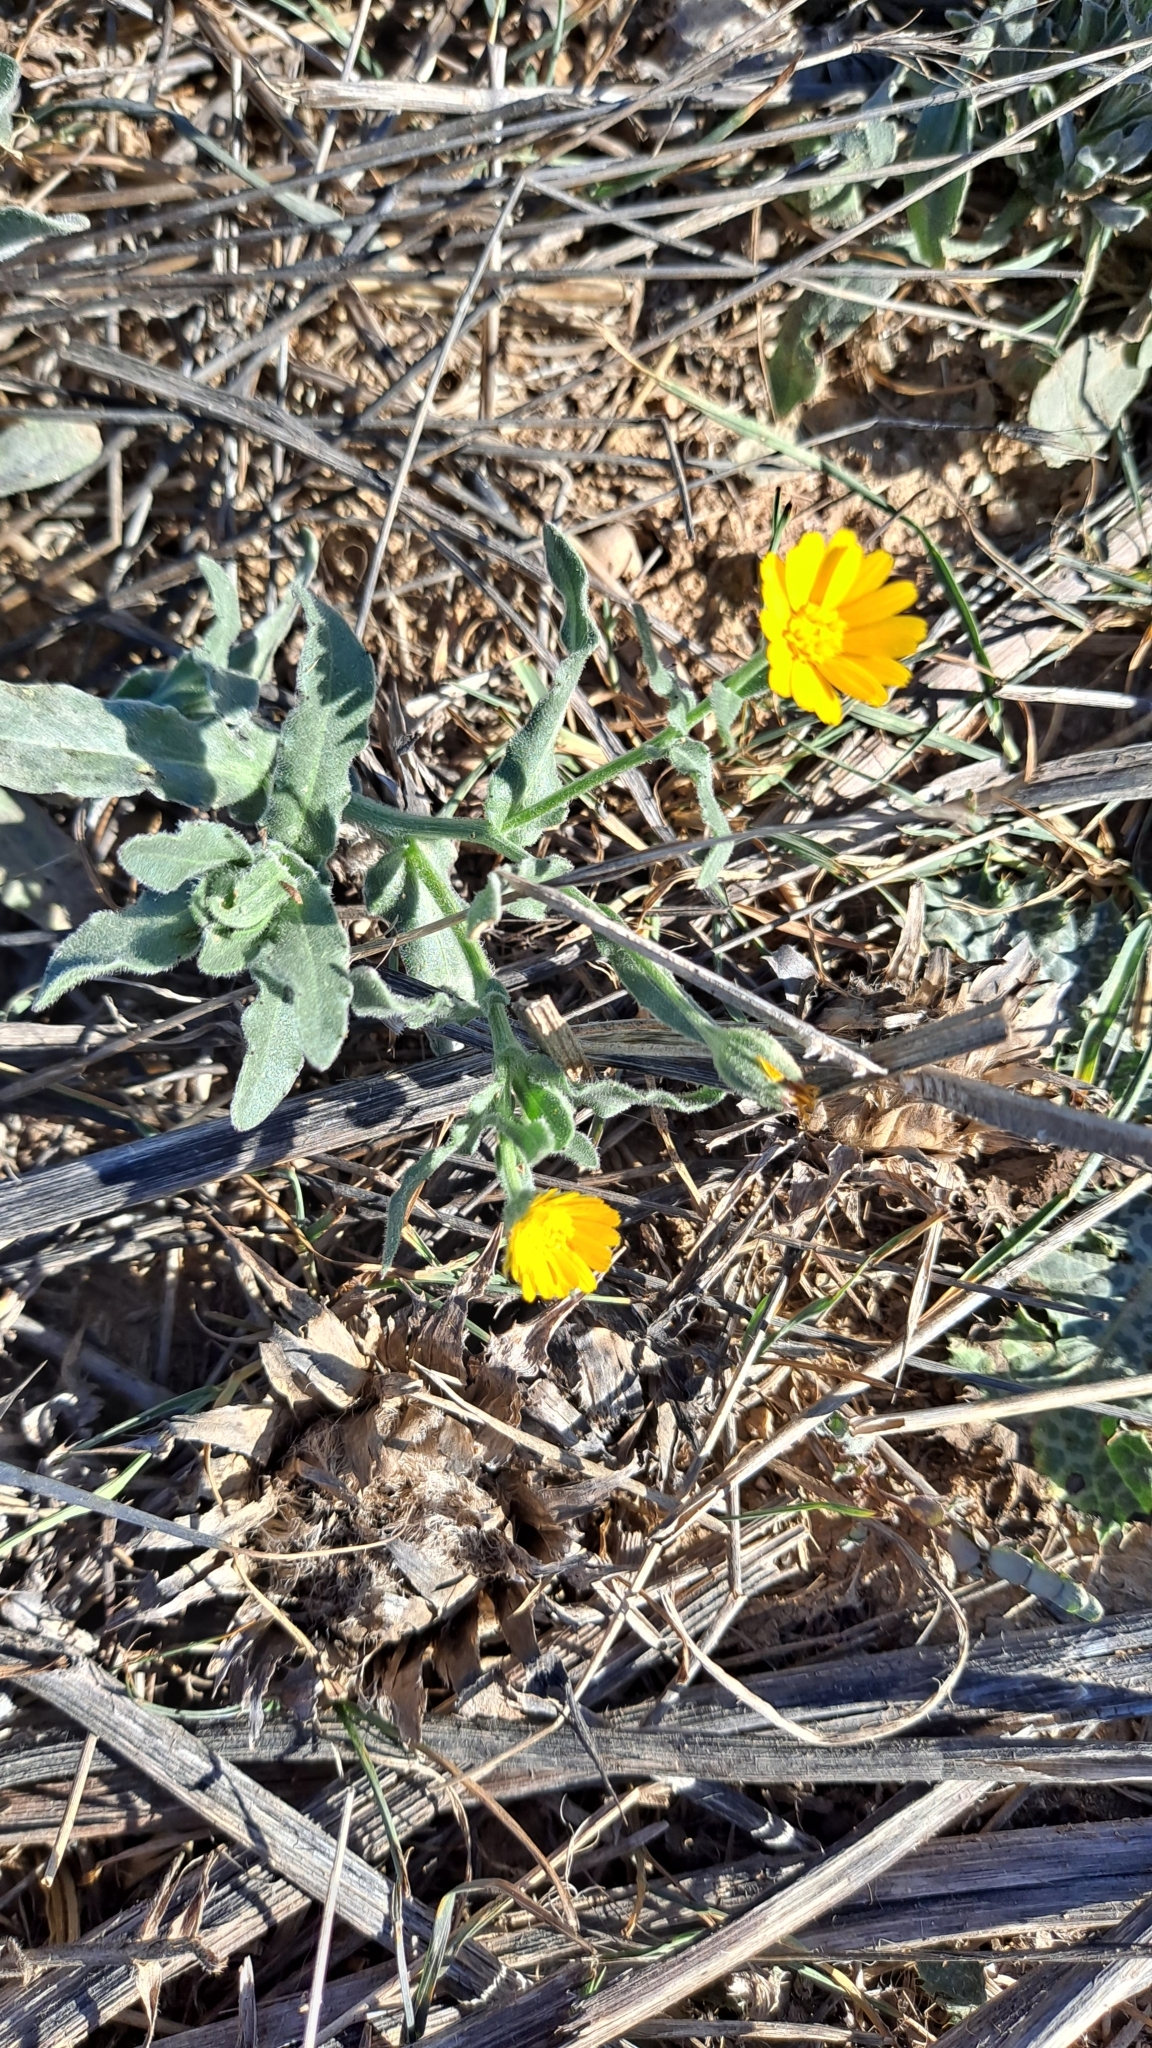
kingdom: Plantae
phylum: Tracheophyta
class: Magnoliopsida
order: Asterales
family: Asteraceae
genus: Calendula
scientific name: Calendula arvensis
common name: Field marigold
